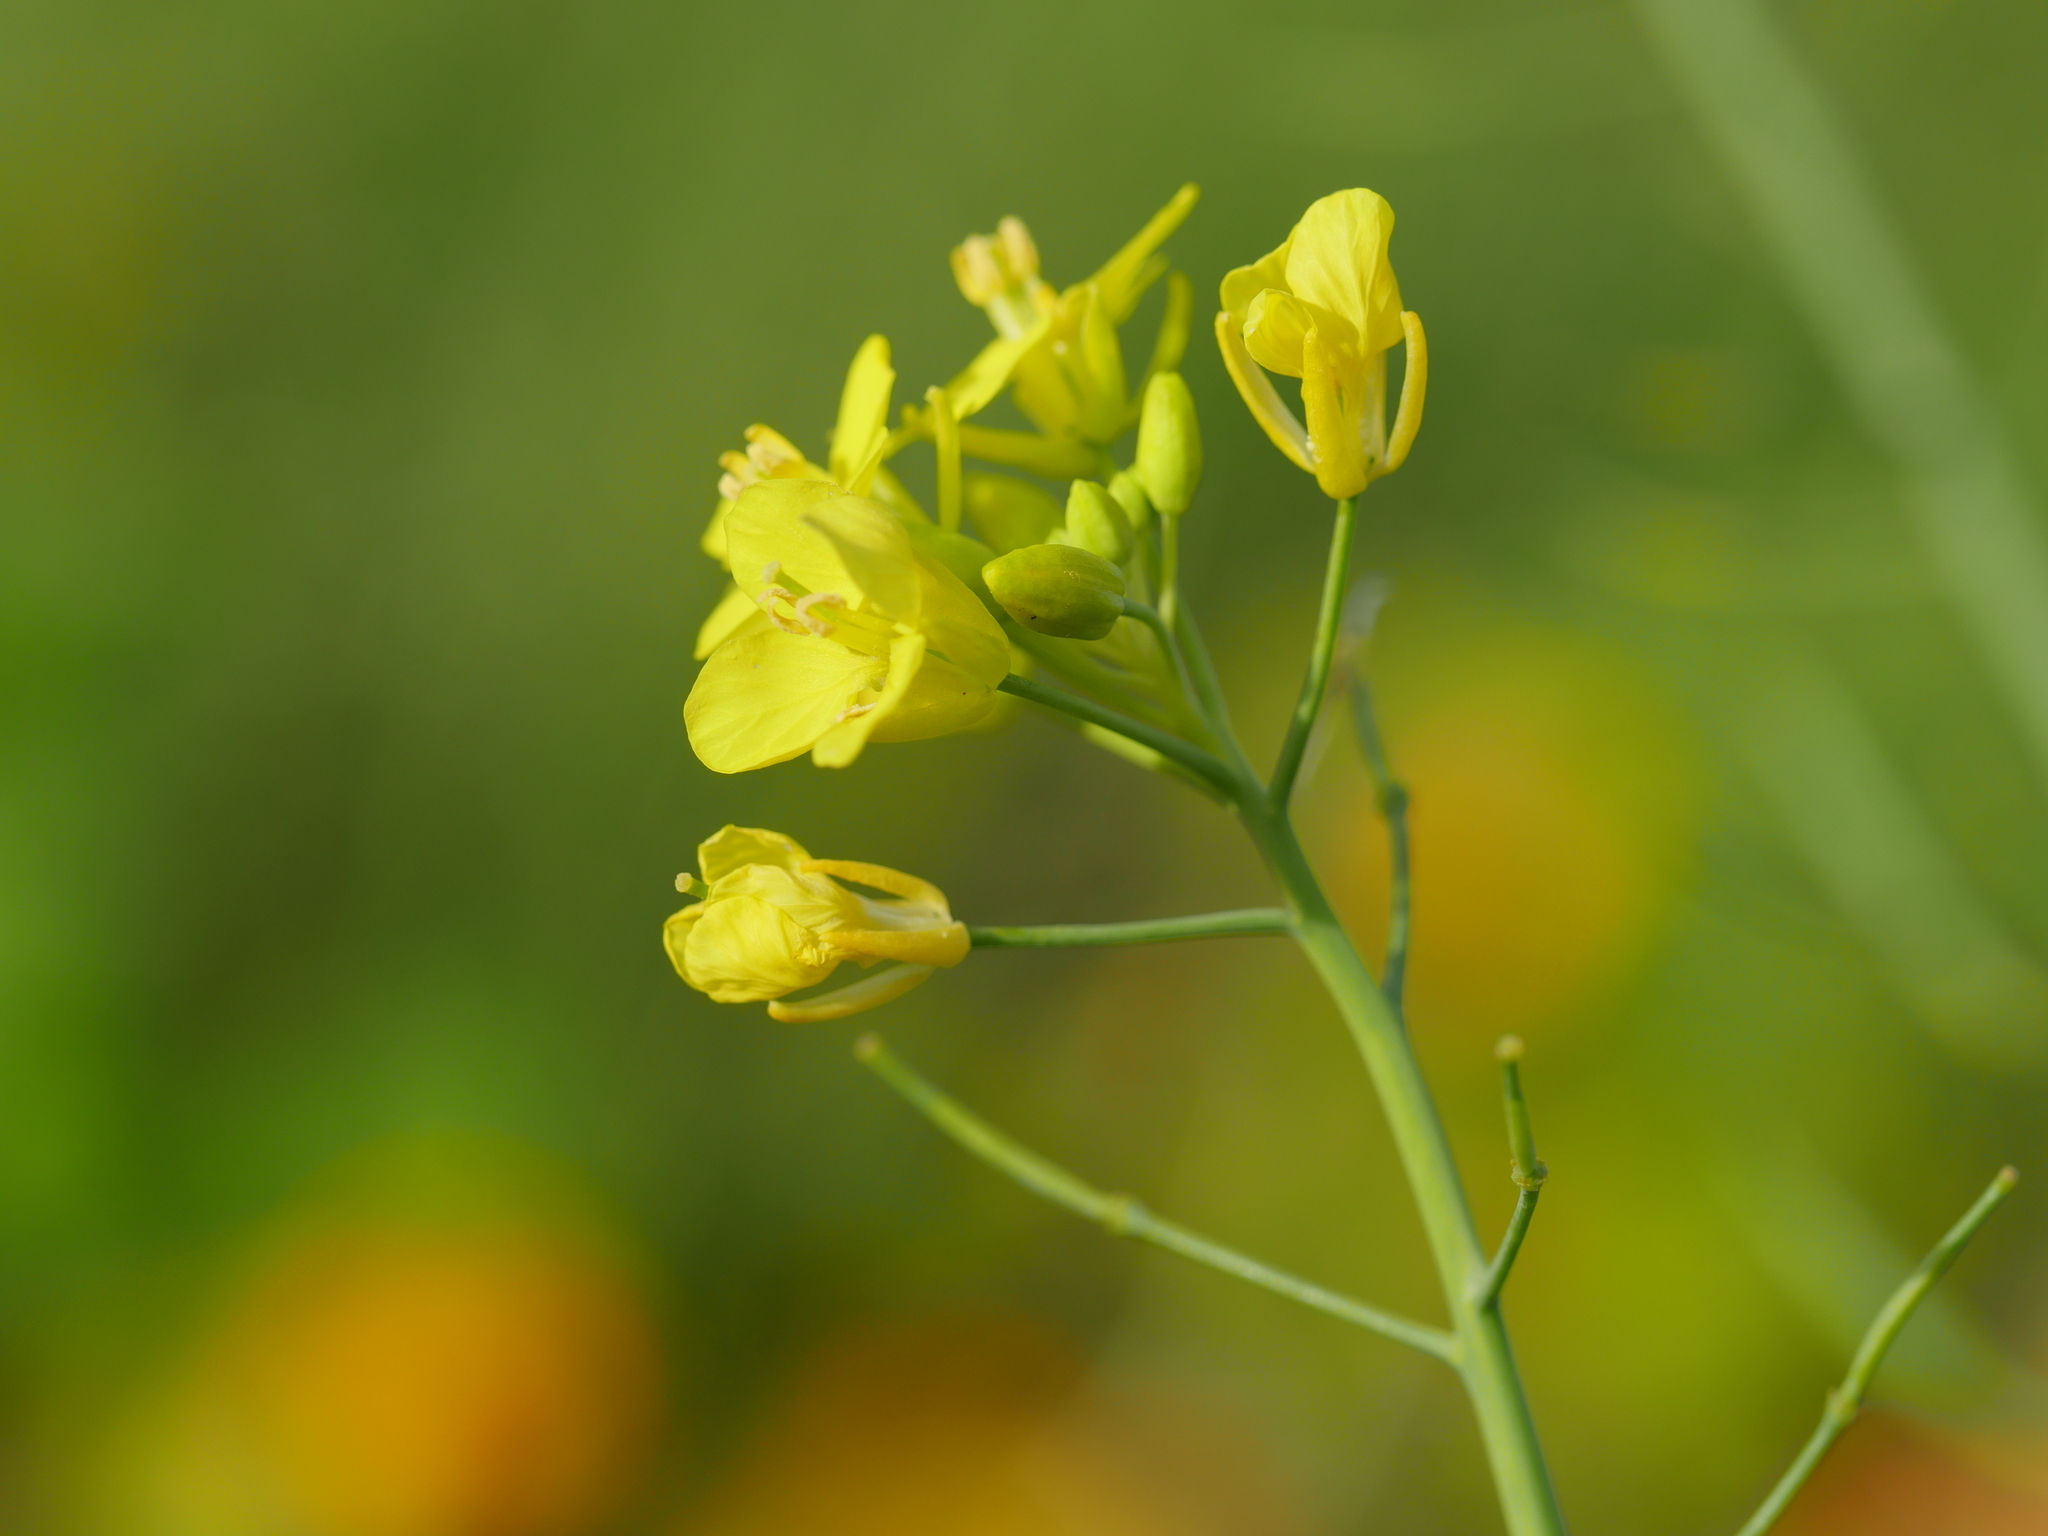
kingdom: Plantae
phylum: Tracheophyta
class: Magnoliopsida
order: Brassicales
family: Brassicaceae
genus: Brassica
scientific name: Brassica rapa
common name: Field mustard
